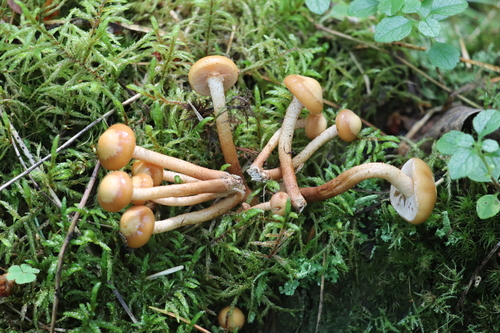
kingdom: Fungi
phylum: Basidiomycota
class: Agaricomycetes
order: Agaricales
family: Strophariaceae
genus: Kuehneromyces
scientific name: Kuehneromyces mutabilis
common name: Sheathed woodtuft
